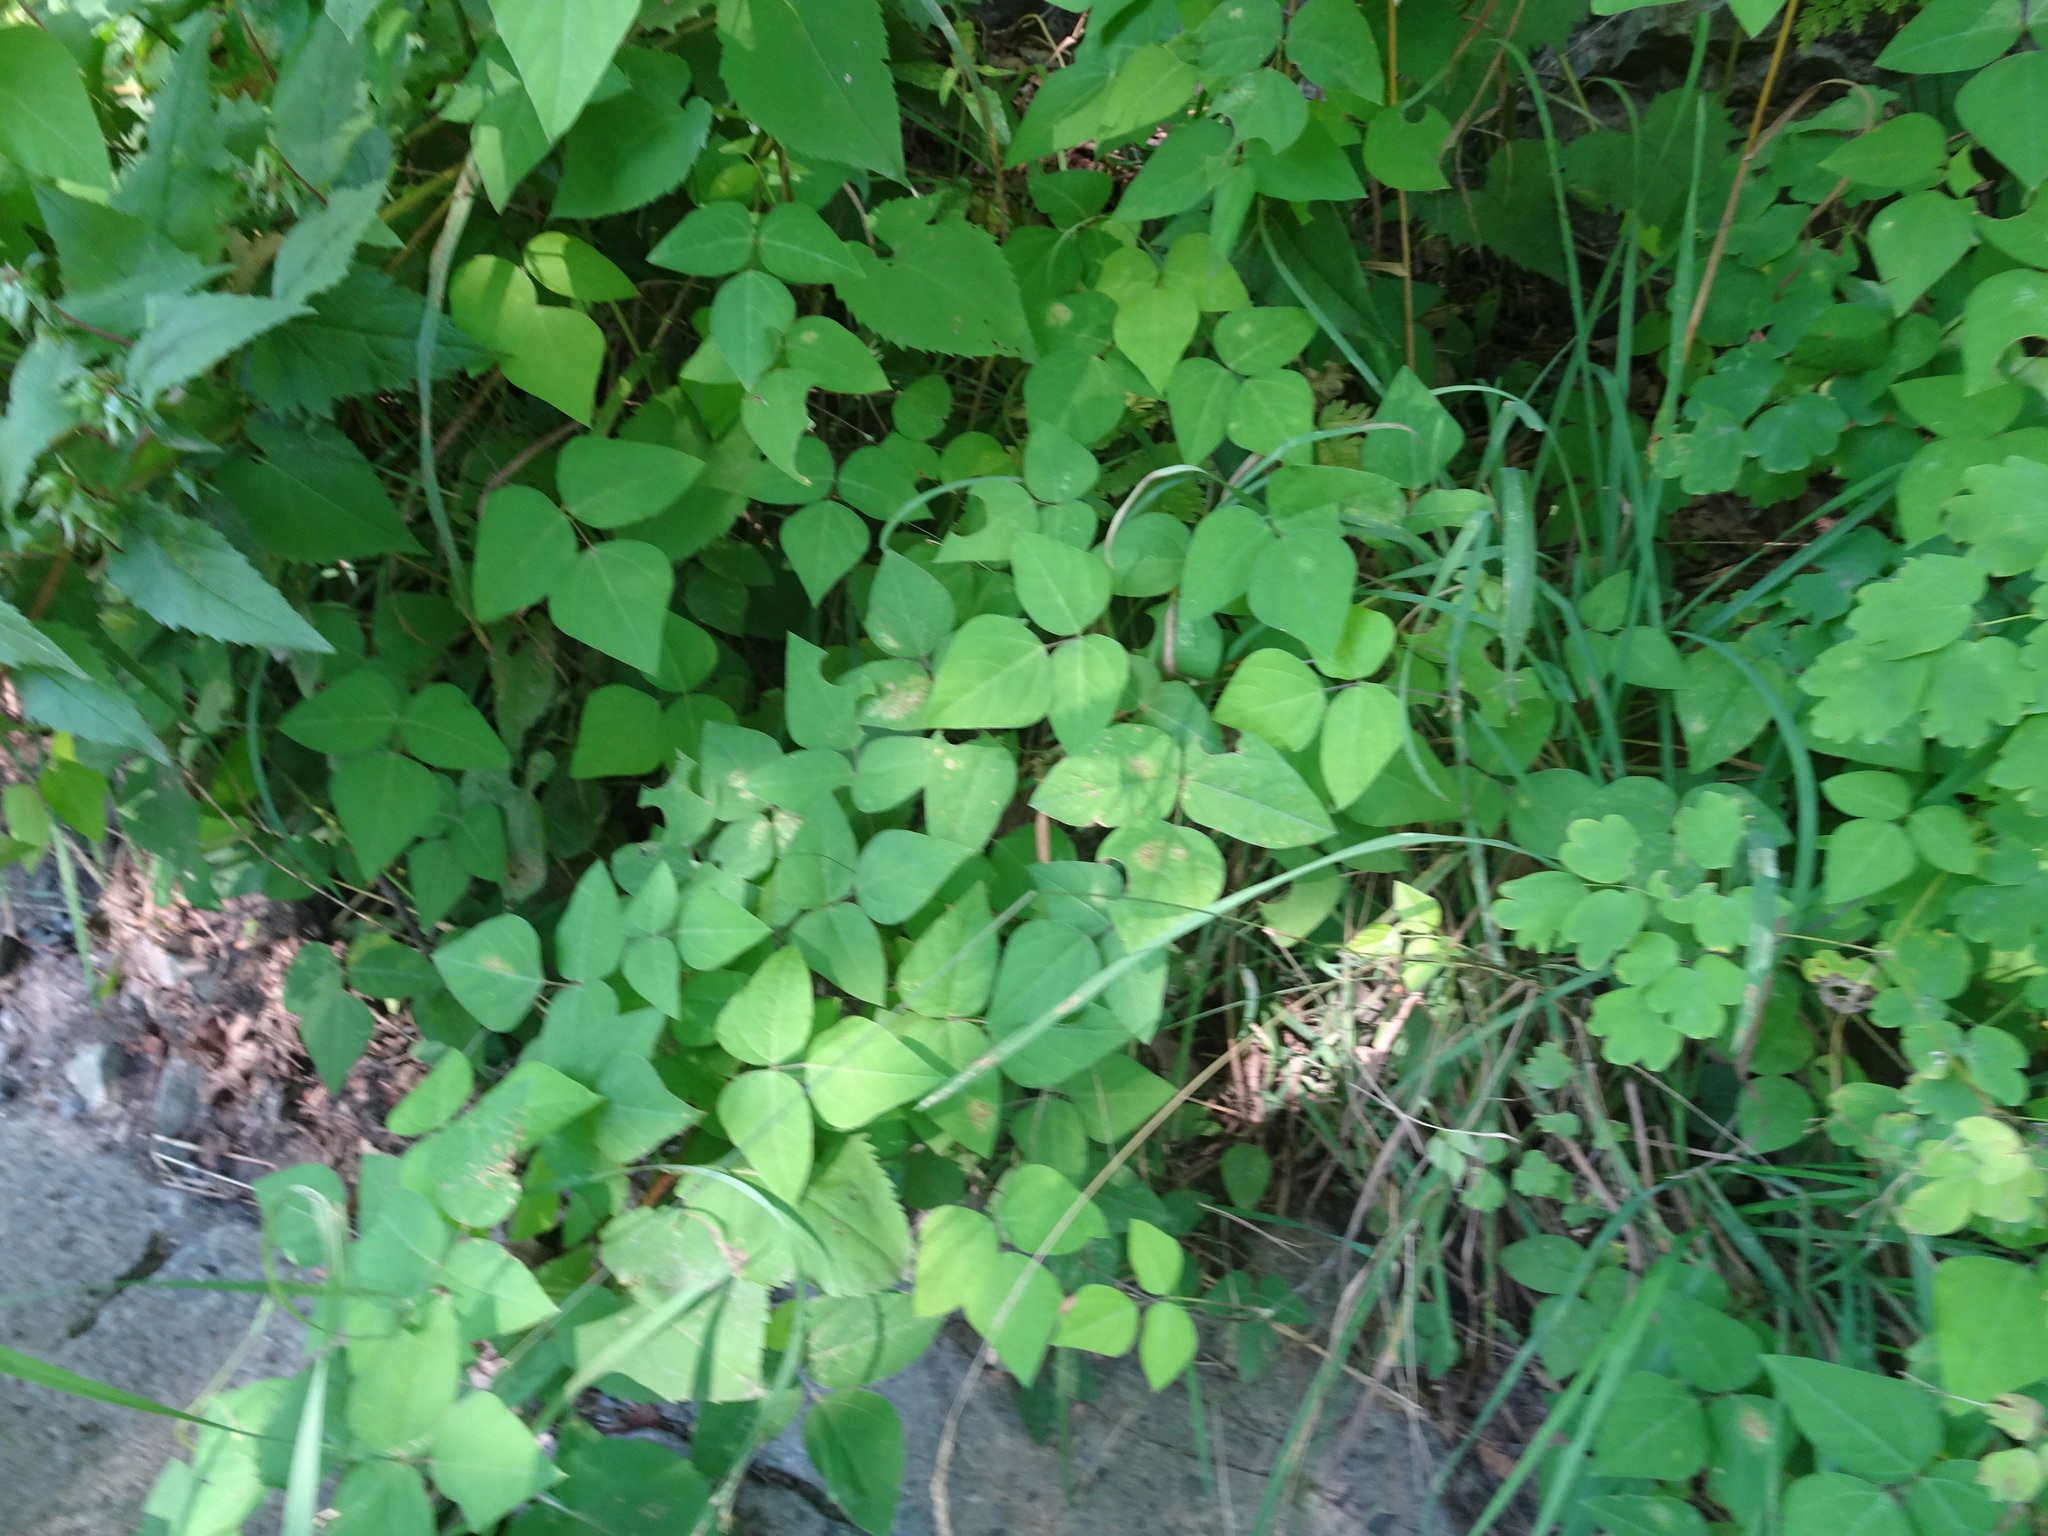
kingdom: Plantae
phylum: Tracheophyta
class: Magnoliopsida
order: Fabales
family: Fabaceae
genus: Amphicarpaea
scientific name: Amphicarpaea bracteata
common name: American hog peanut
